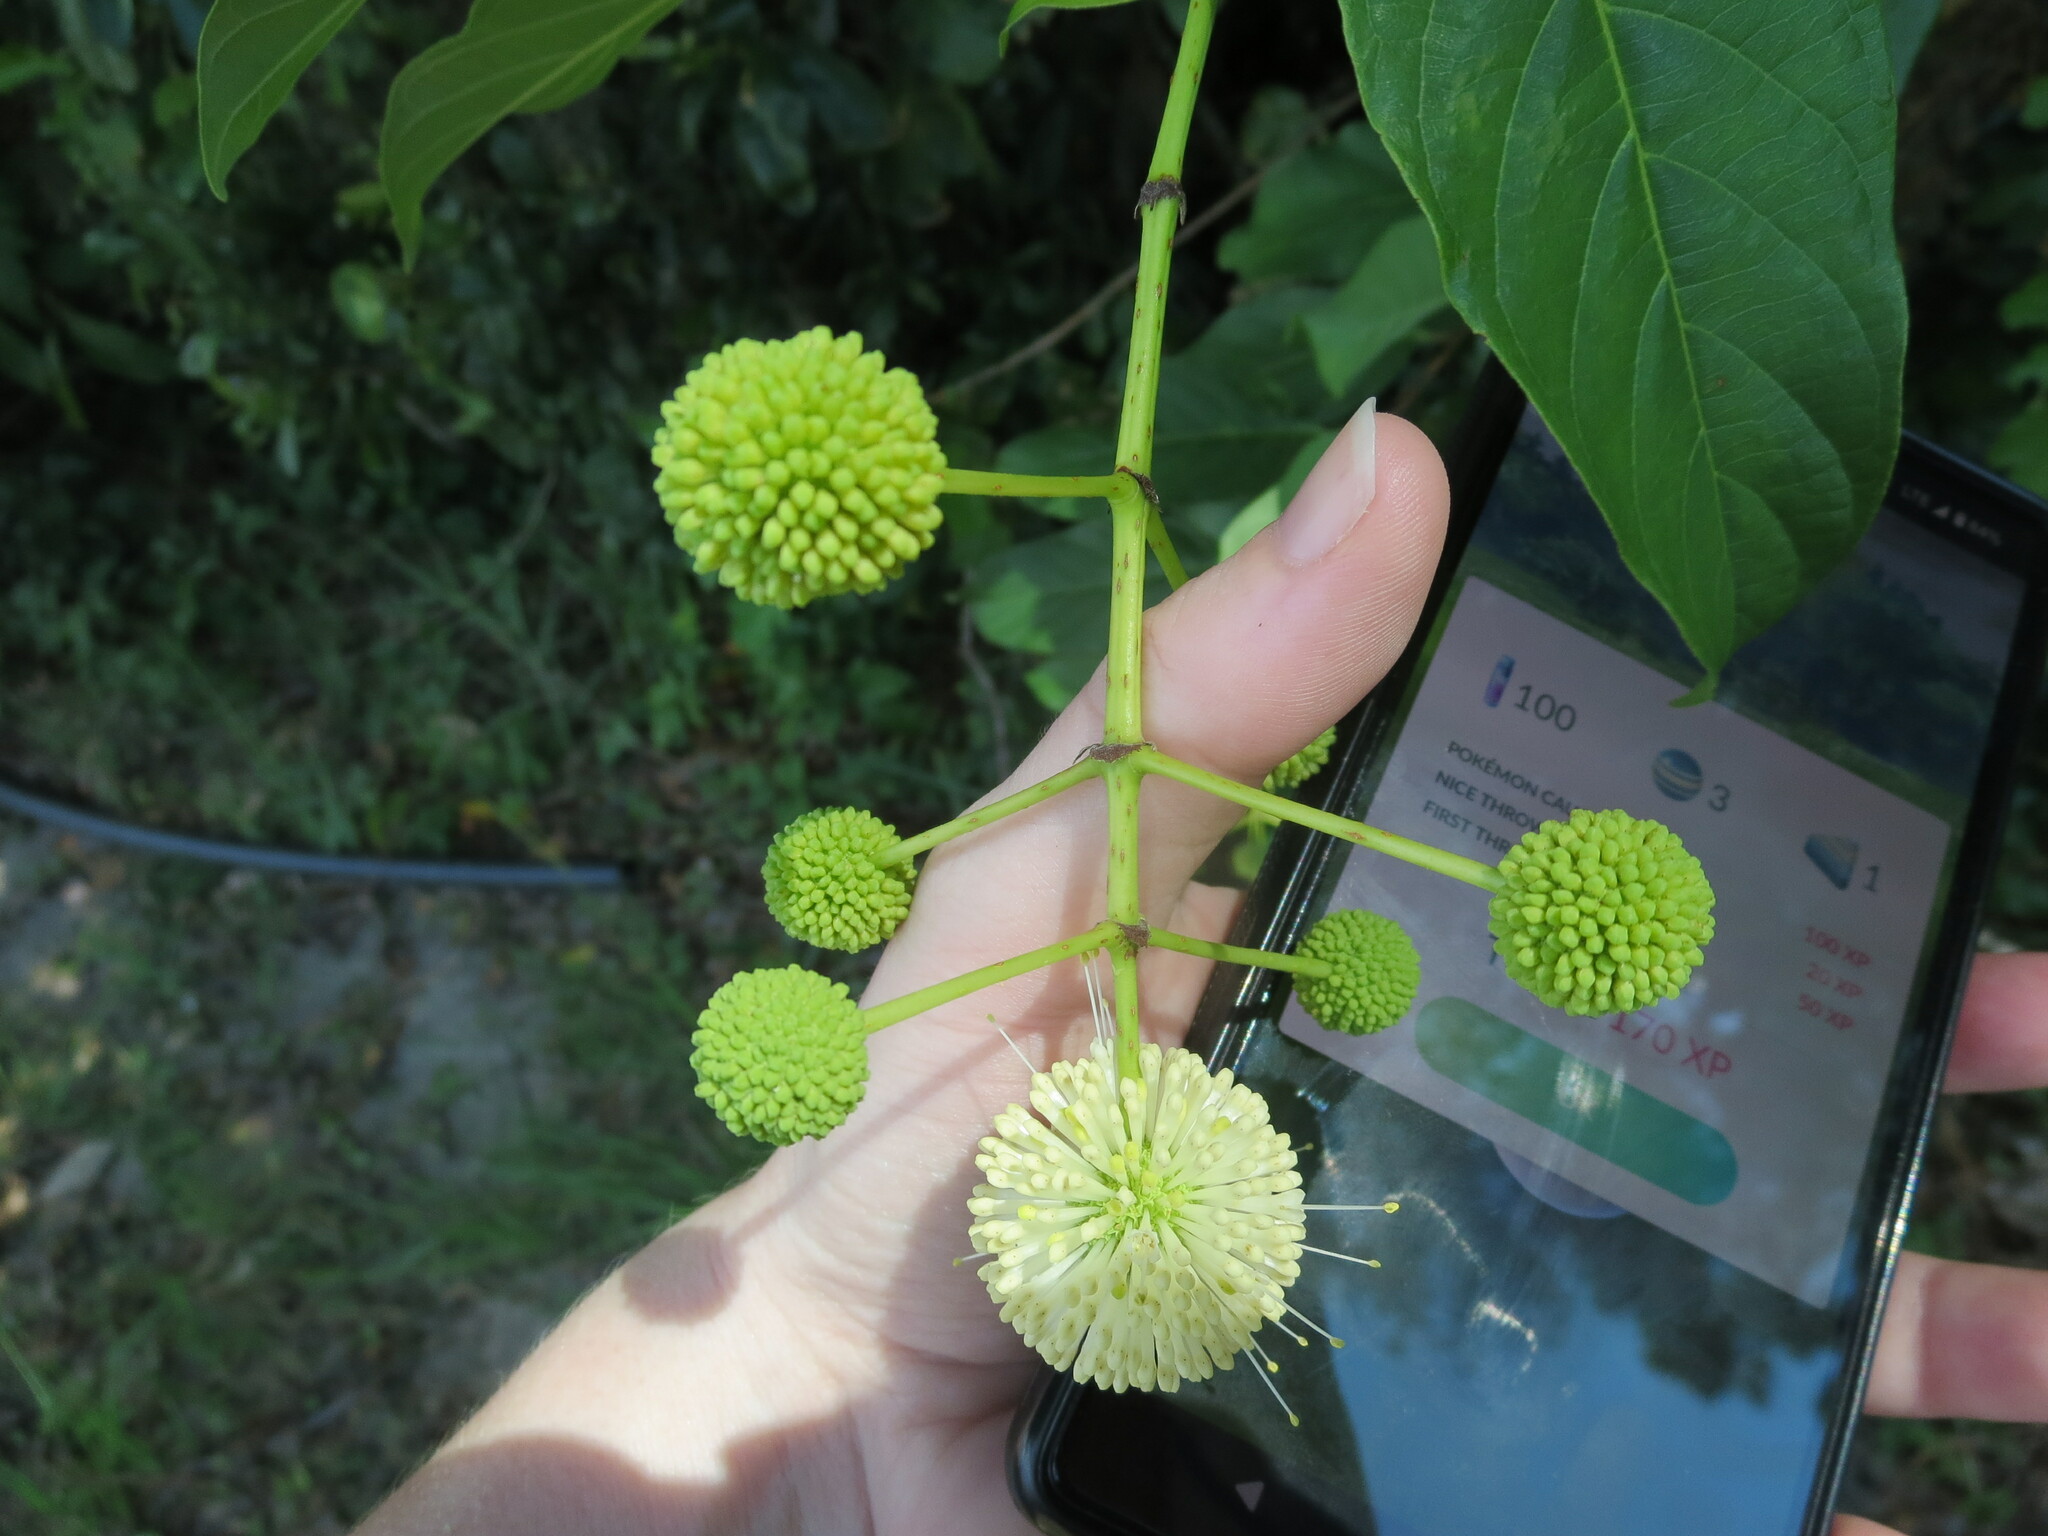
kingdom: Plantae
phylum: Tracheophyta
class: Magnoliopsida
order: Gentianales
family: Rubiaceae
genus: Cephalanthus
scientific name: Cephalanthus occidentalis
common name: Button-willow
